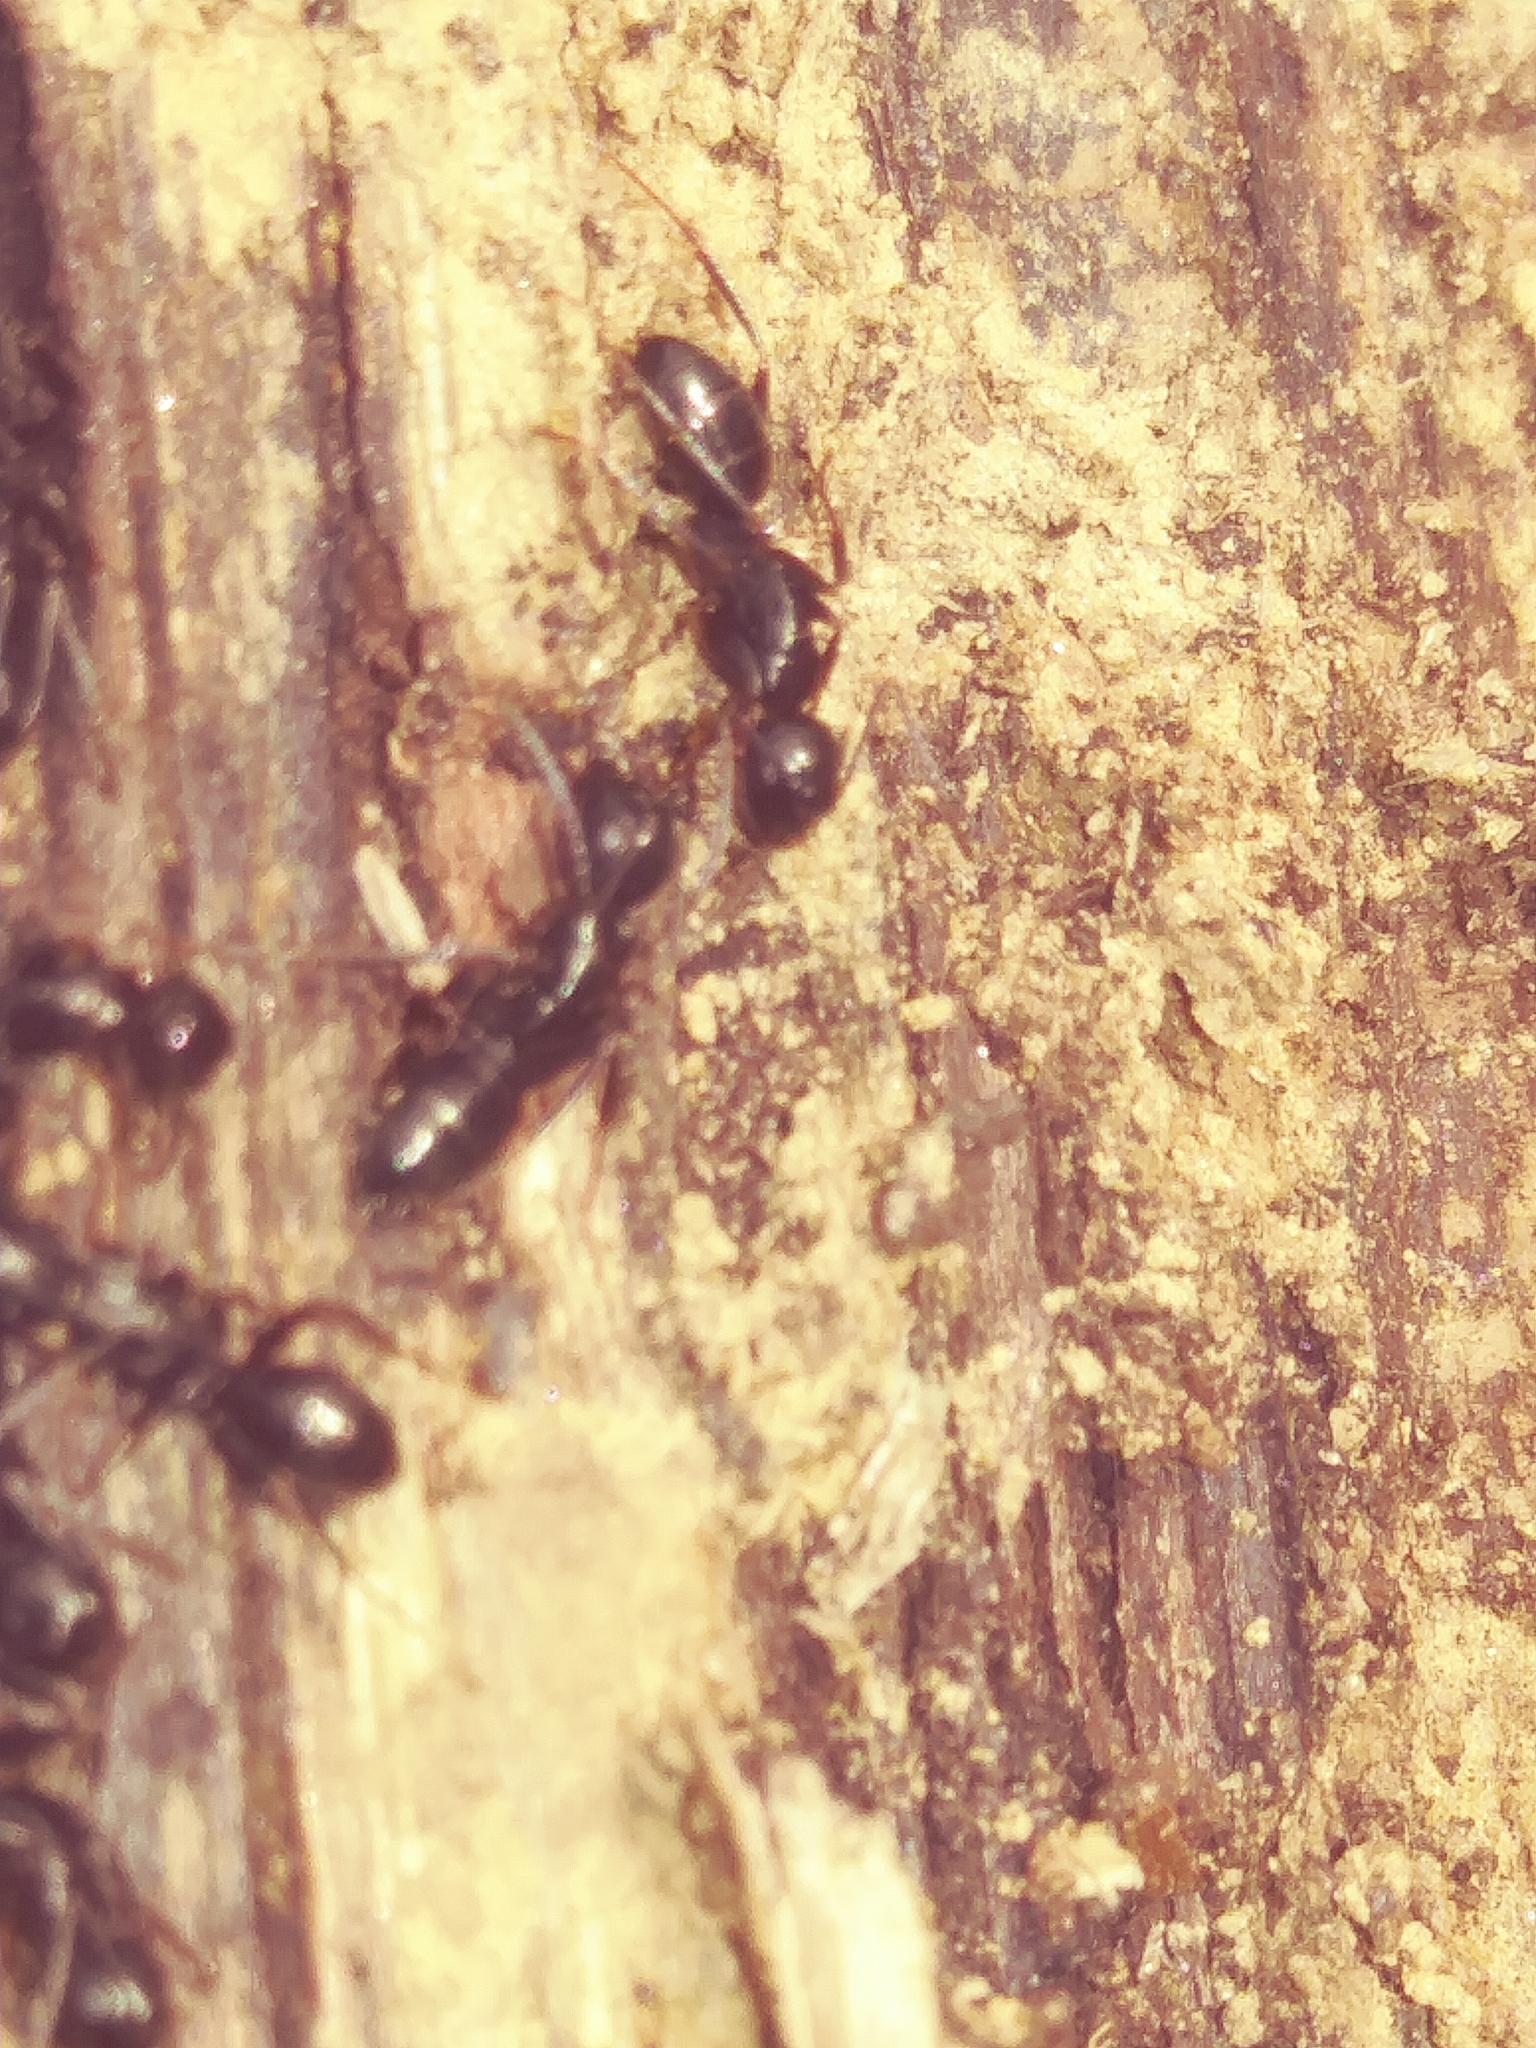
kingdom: Animalia
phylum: Arthropoda
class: Insecta
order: Hymenoptera
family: Formicidae
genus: Camponotus
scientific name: Camponotus nearcticus
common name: Smaller carpenter ant
